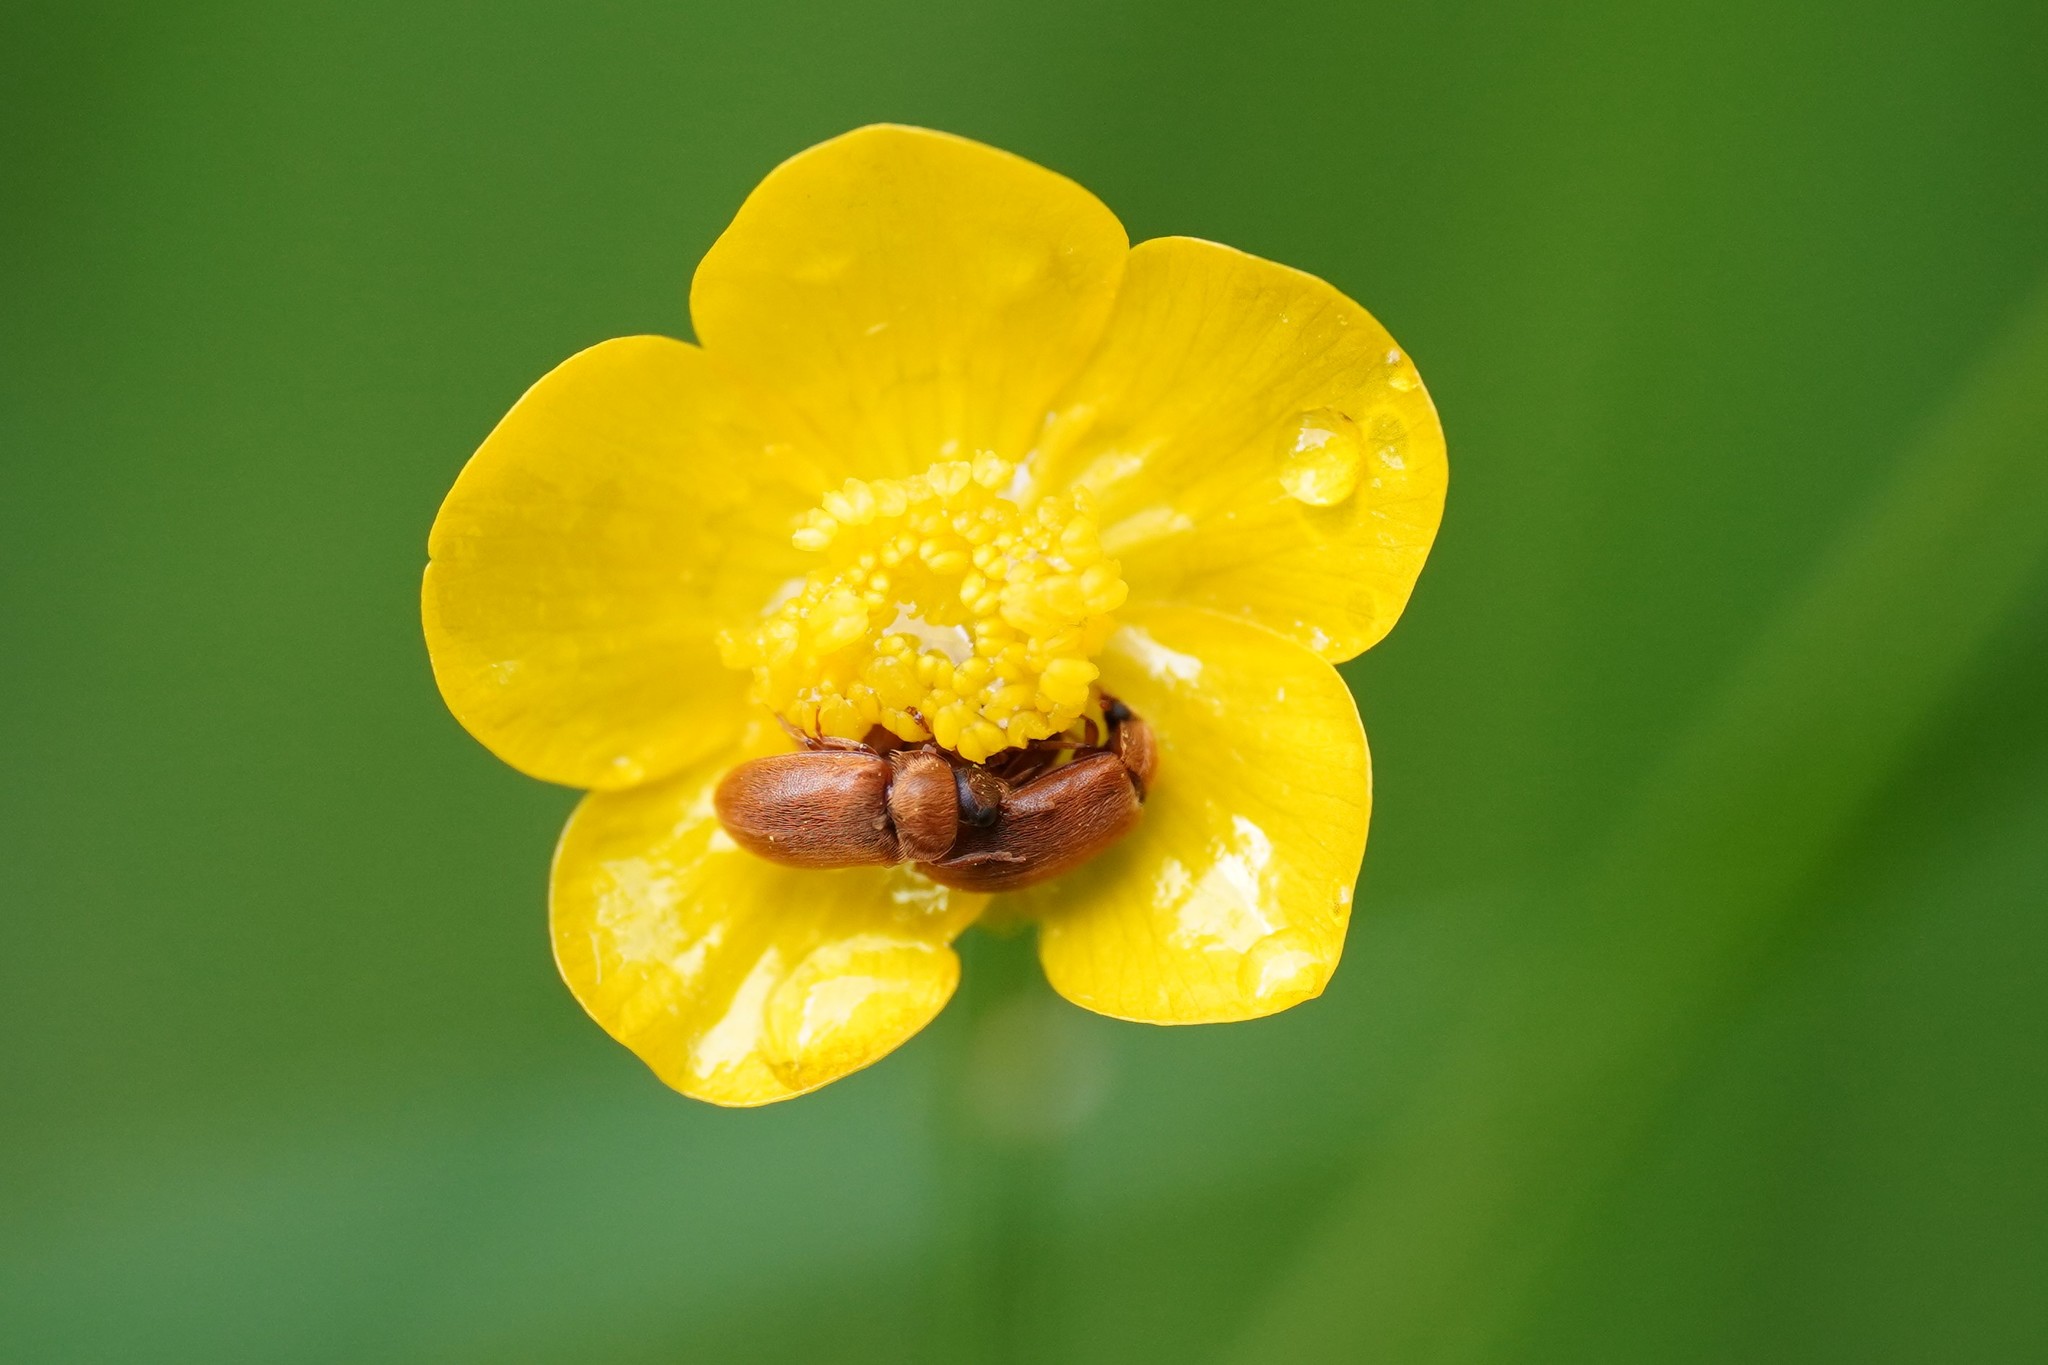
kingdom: Animalia
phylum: Arthropoda
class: Insecta
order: Coleoptera
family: Byturidae
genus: Byturus
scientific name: Byturus ochraceus
